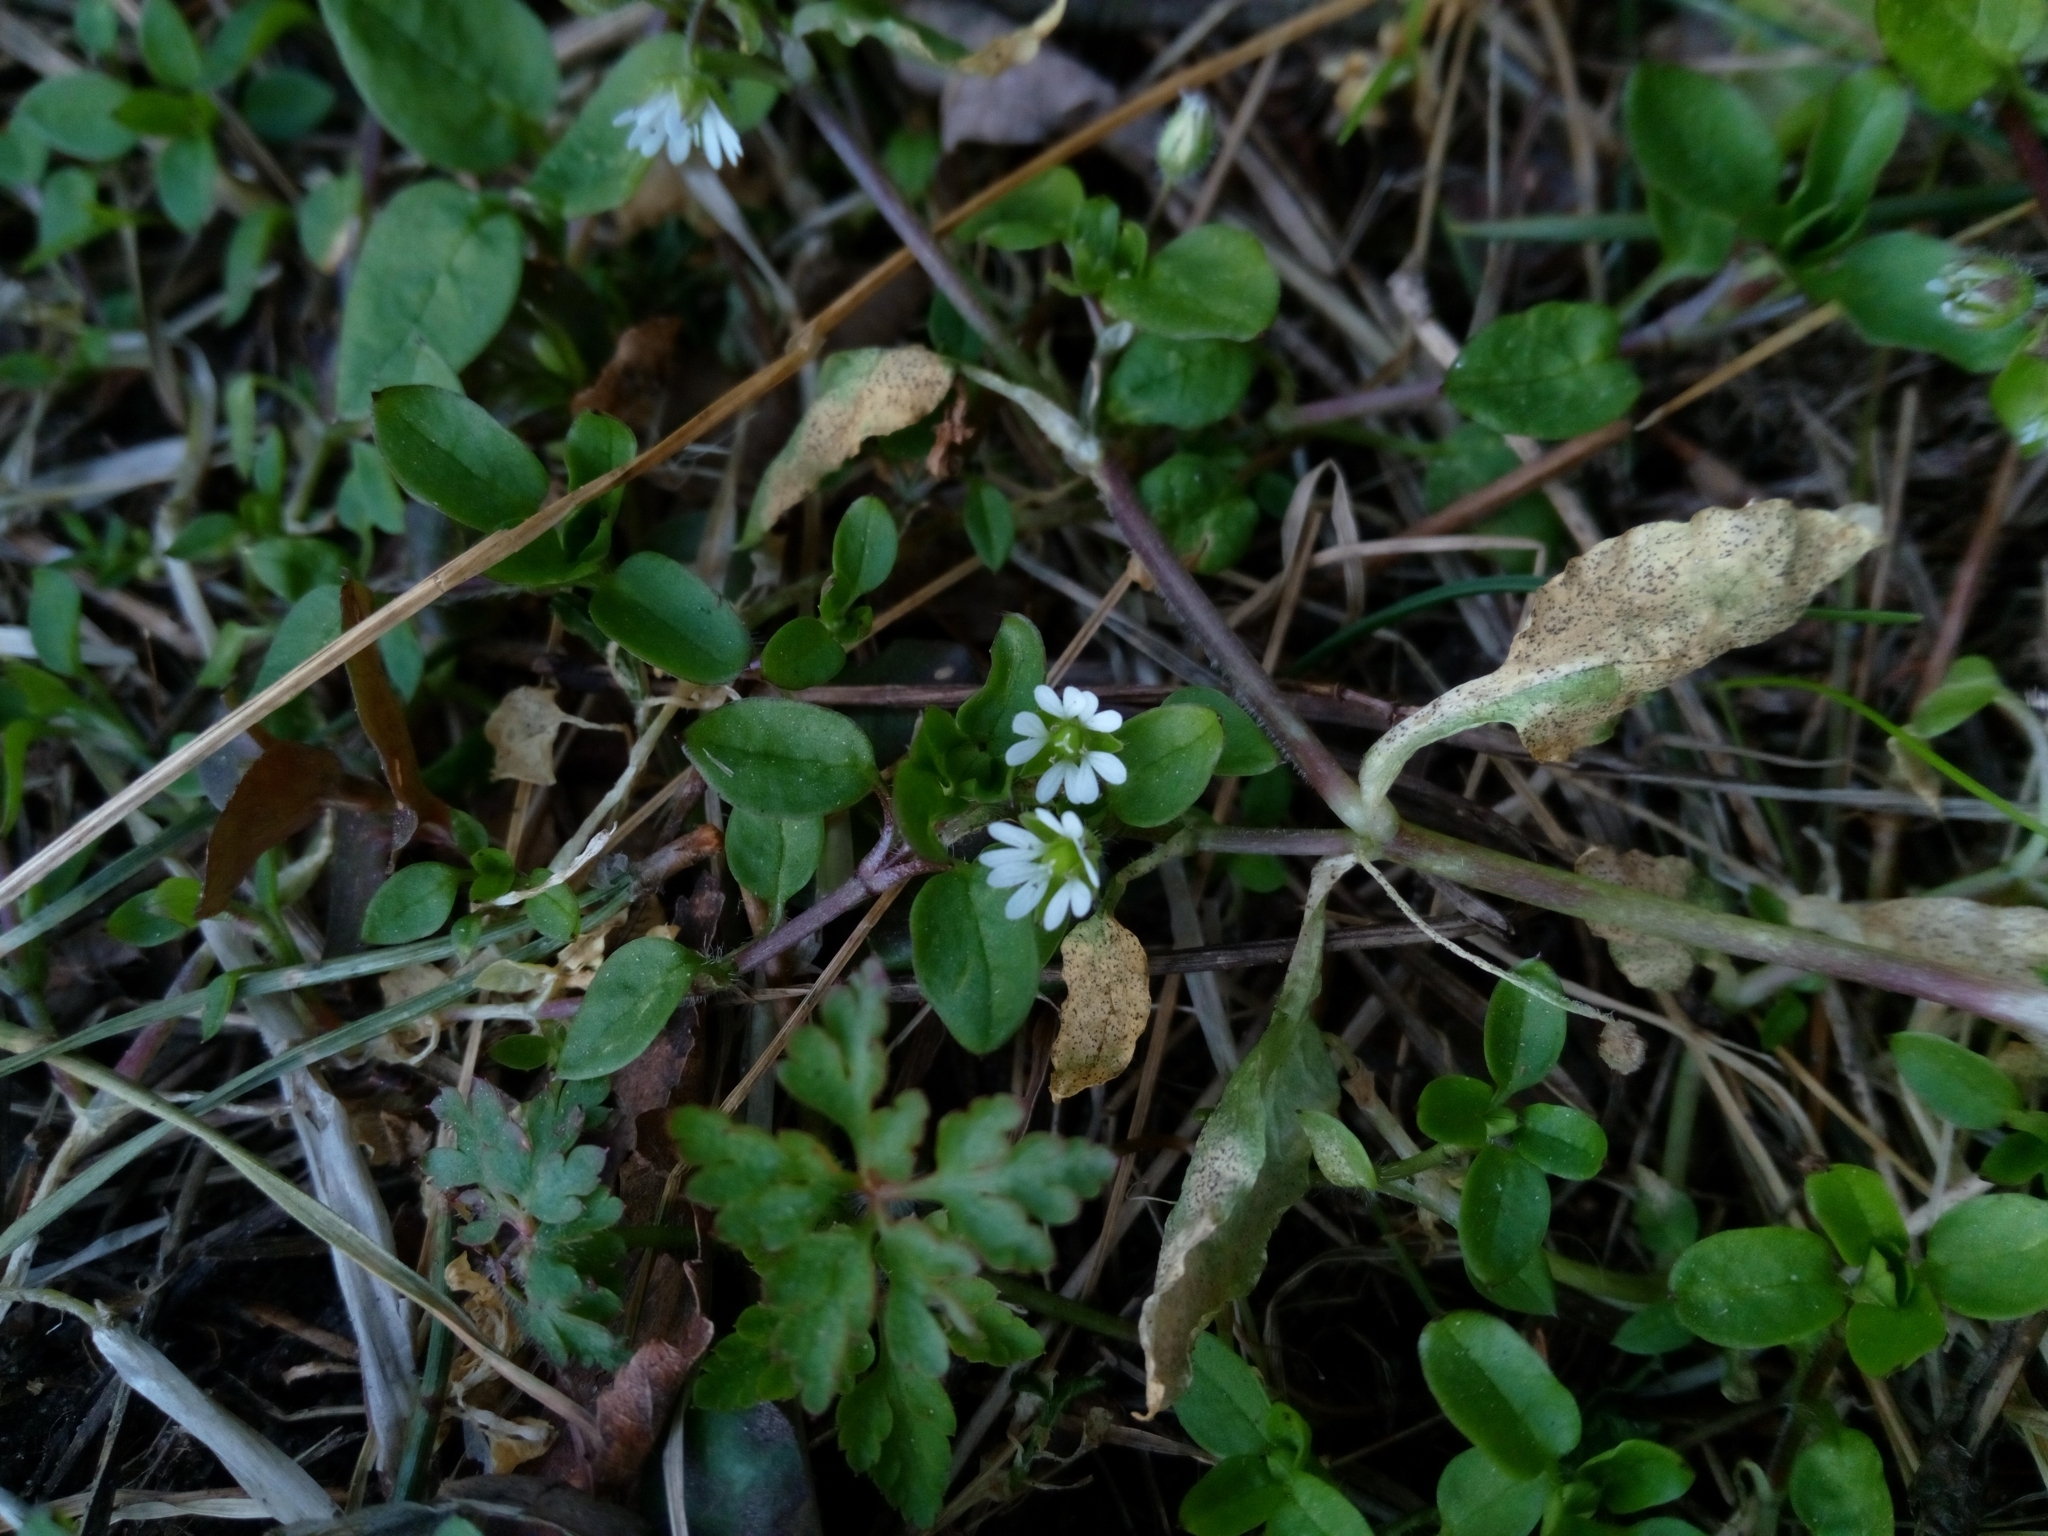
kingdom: Plantae
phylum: Tracheophyta
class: Magnoliopsida
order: Caryophyllales
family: Caryophyllaceae
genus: Stellaria
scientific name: Stellaria media
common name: Common chickweed
